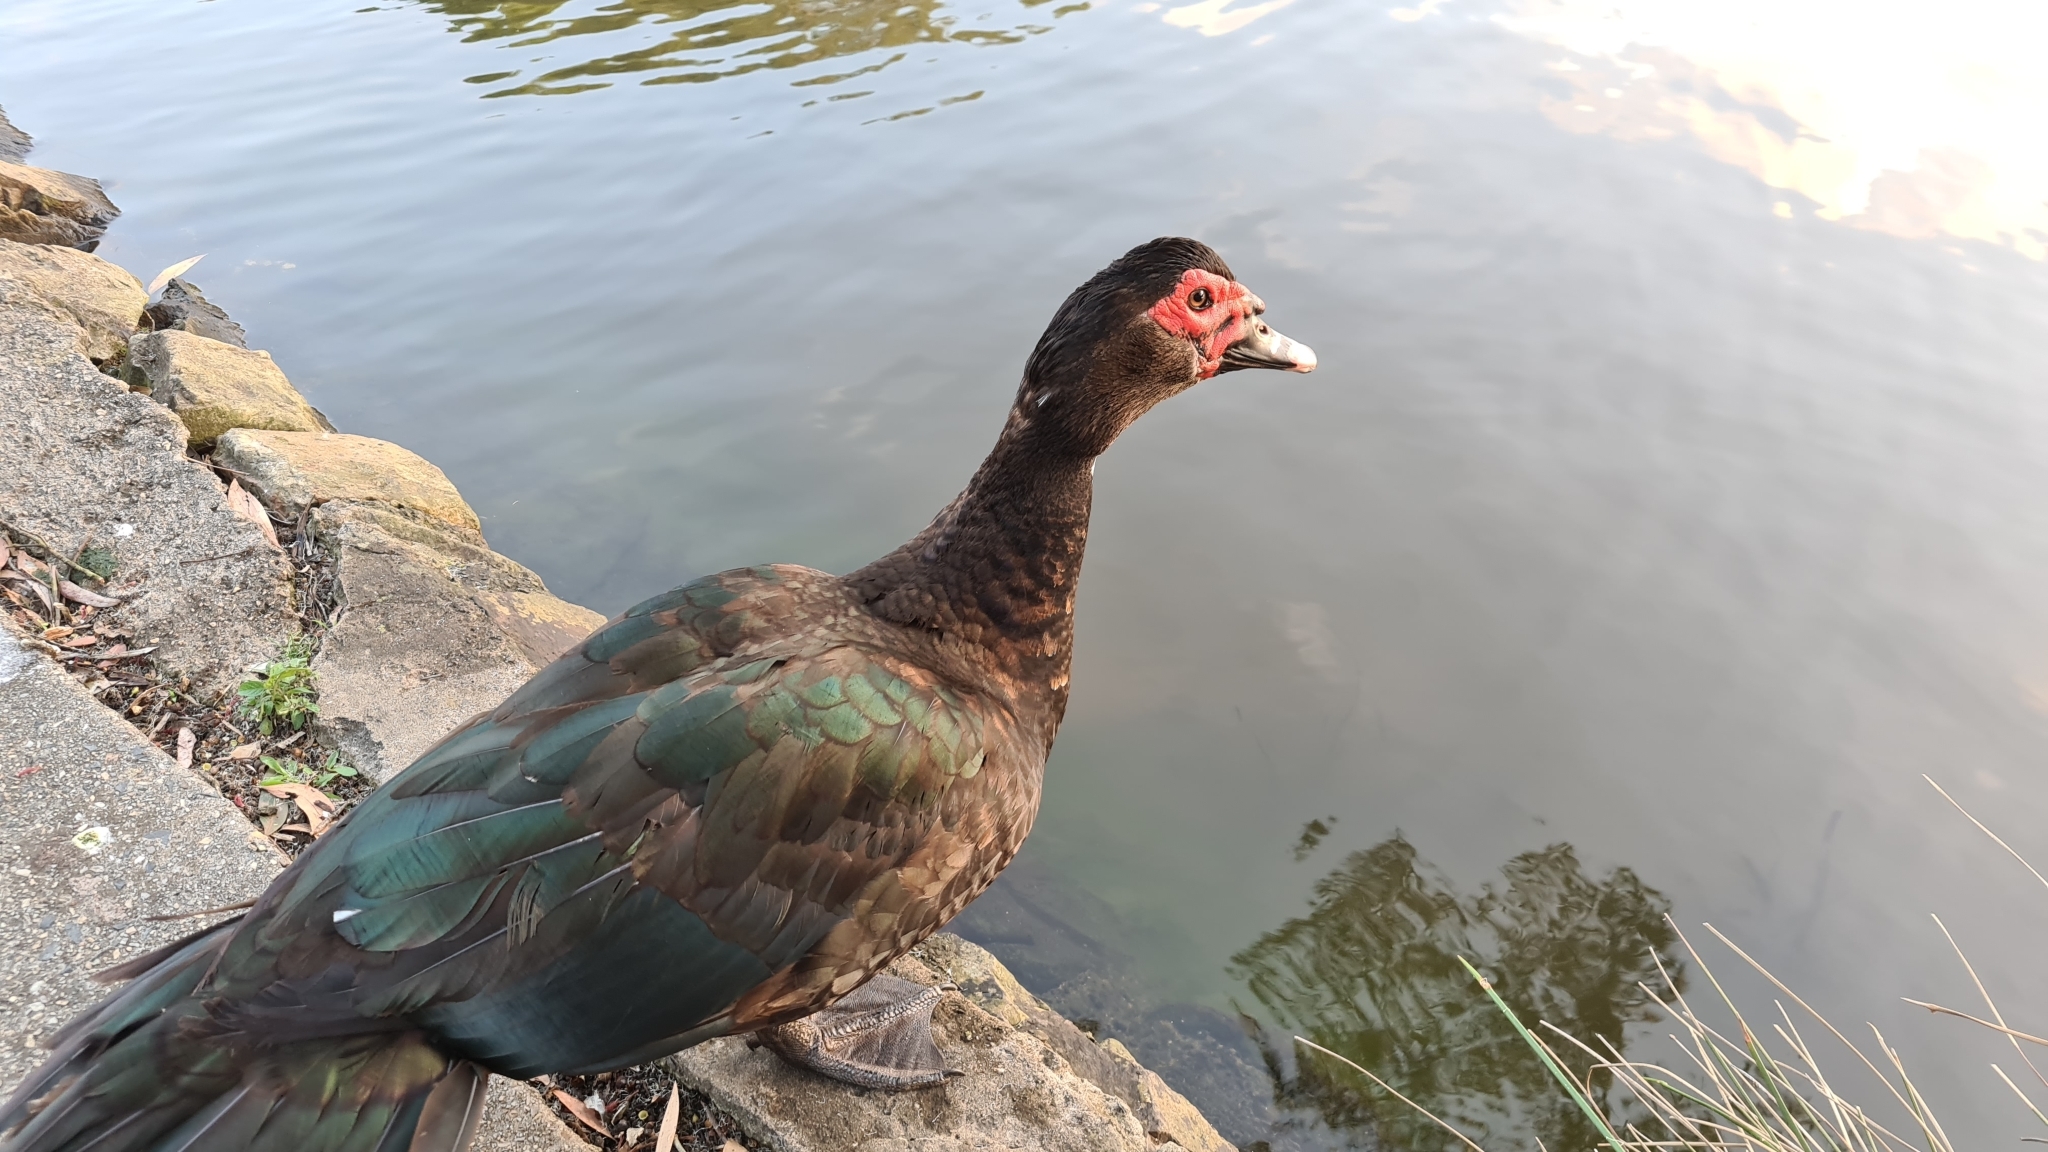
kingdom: Animalia
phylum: Chordata
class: Aves
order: Anseriformes
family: Anatidae
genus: Cairina
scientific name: Cairina moschata
